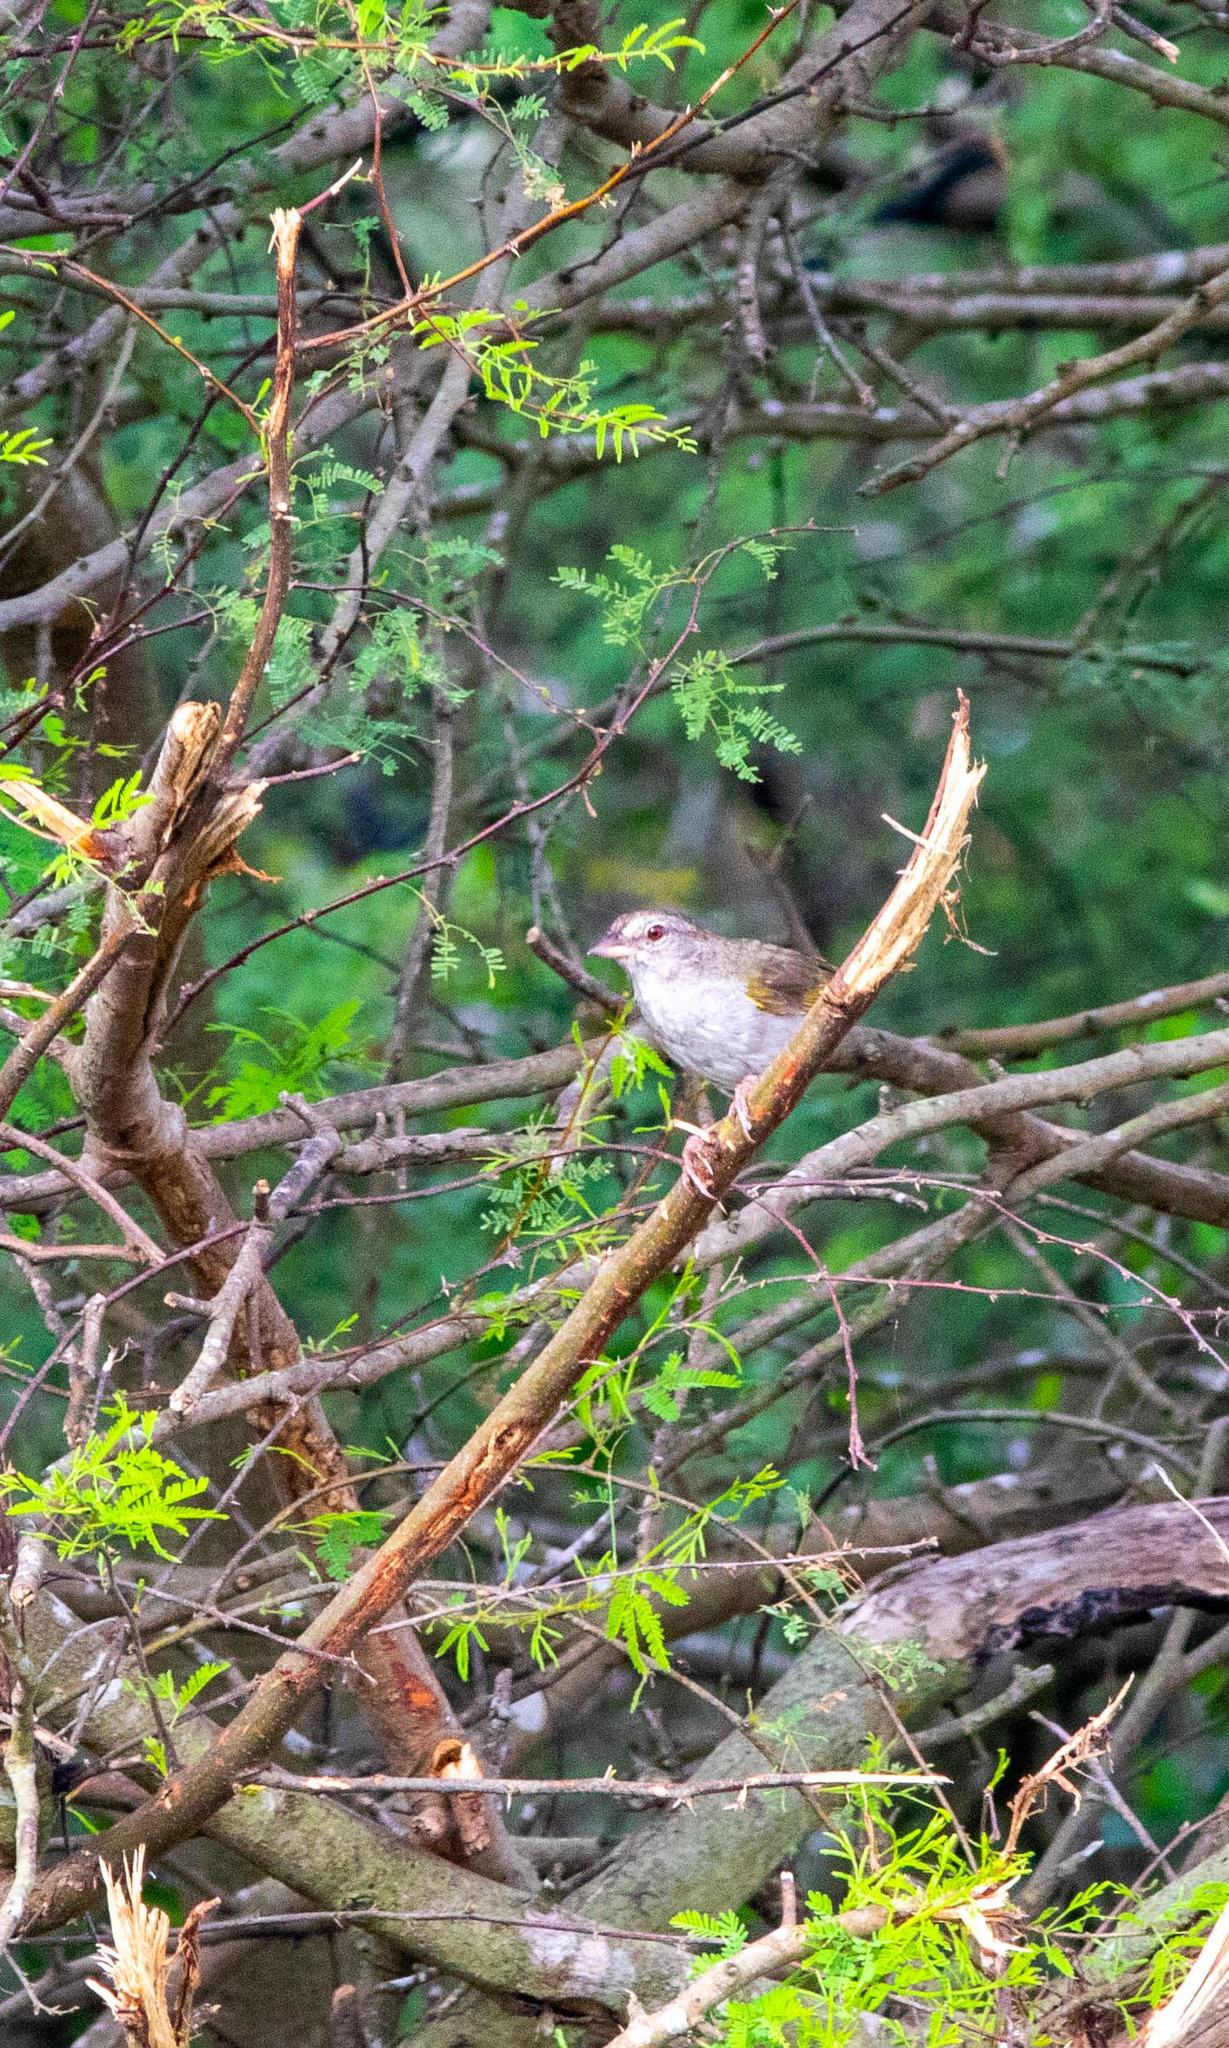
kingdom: Animalia
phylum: Chordata
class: Aves
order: Passeriformes
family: Passerellidae
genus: Arremonops
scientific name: Arremonops rufivirgatus
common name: Olive sparrow
